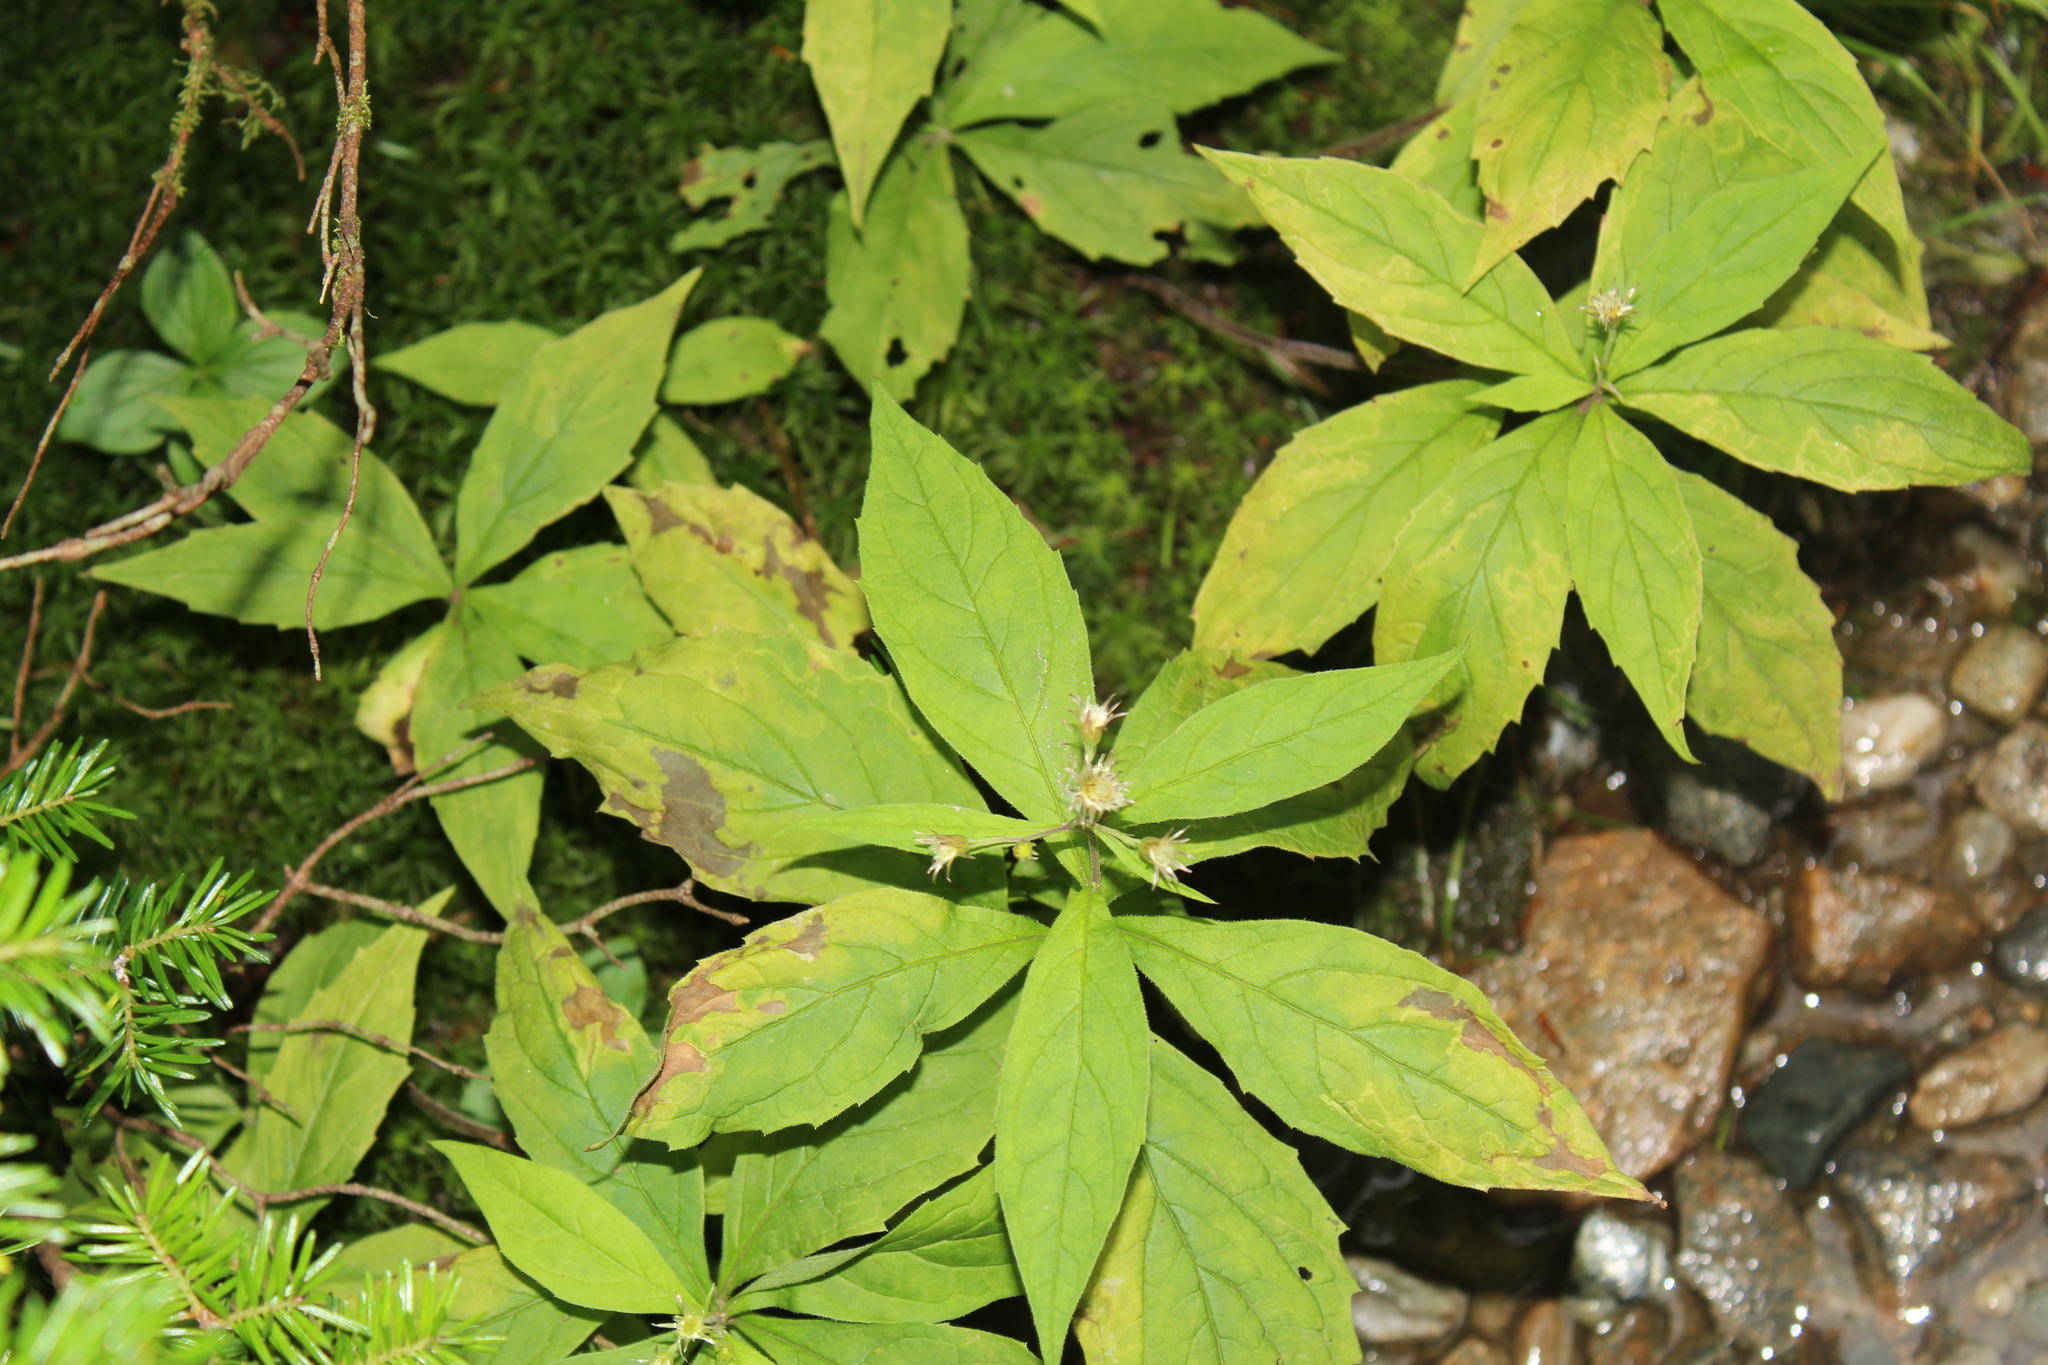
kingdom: Plantae
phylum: Tracheophyta
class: Magnoliopsida
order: Asterales
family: Asteraceae
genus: Oclemena
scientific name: Oclemena acuminata
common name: Mountain aster
